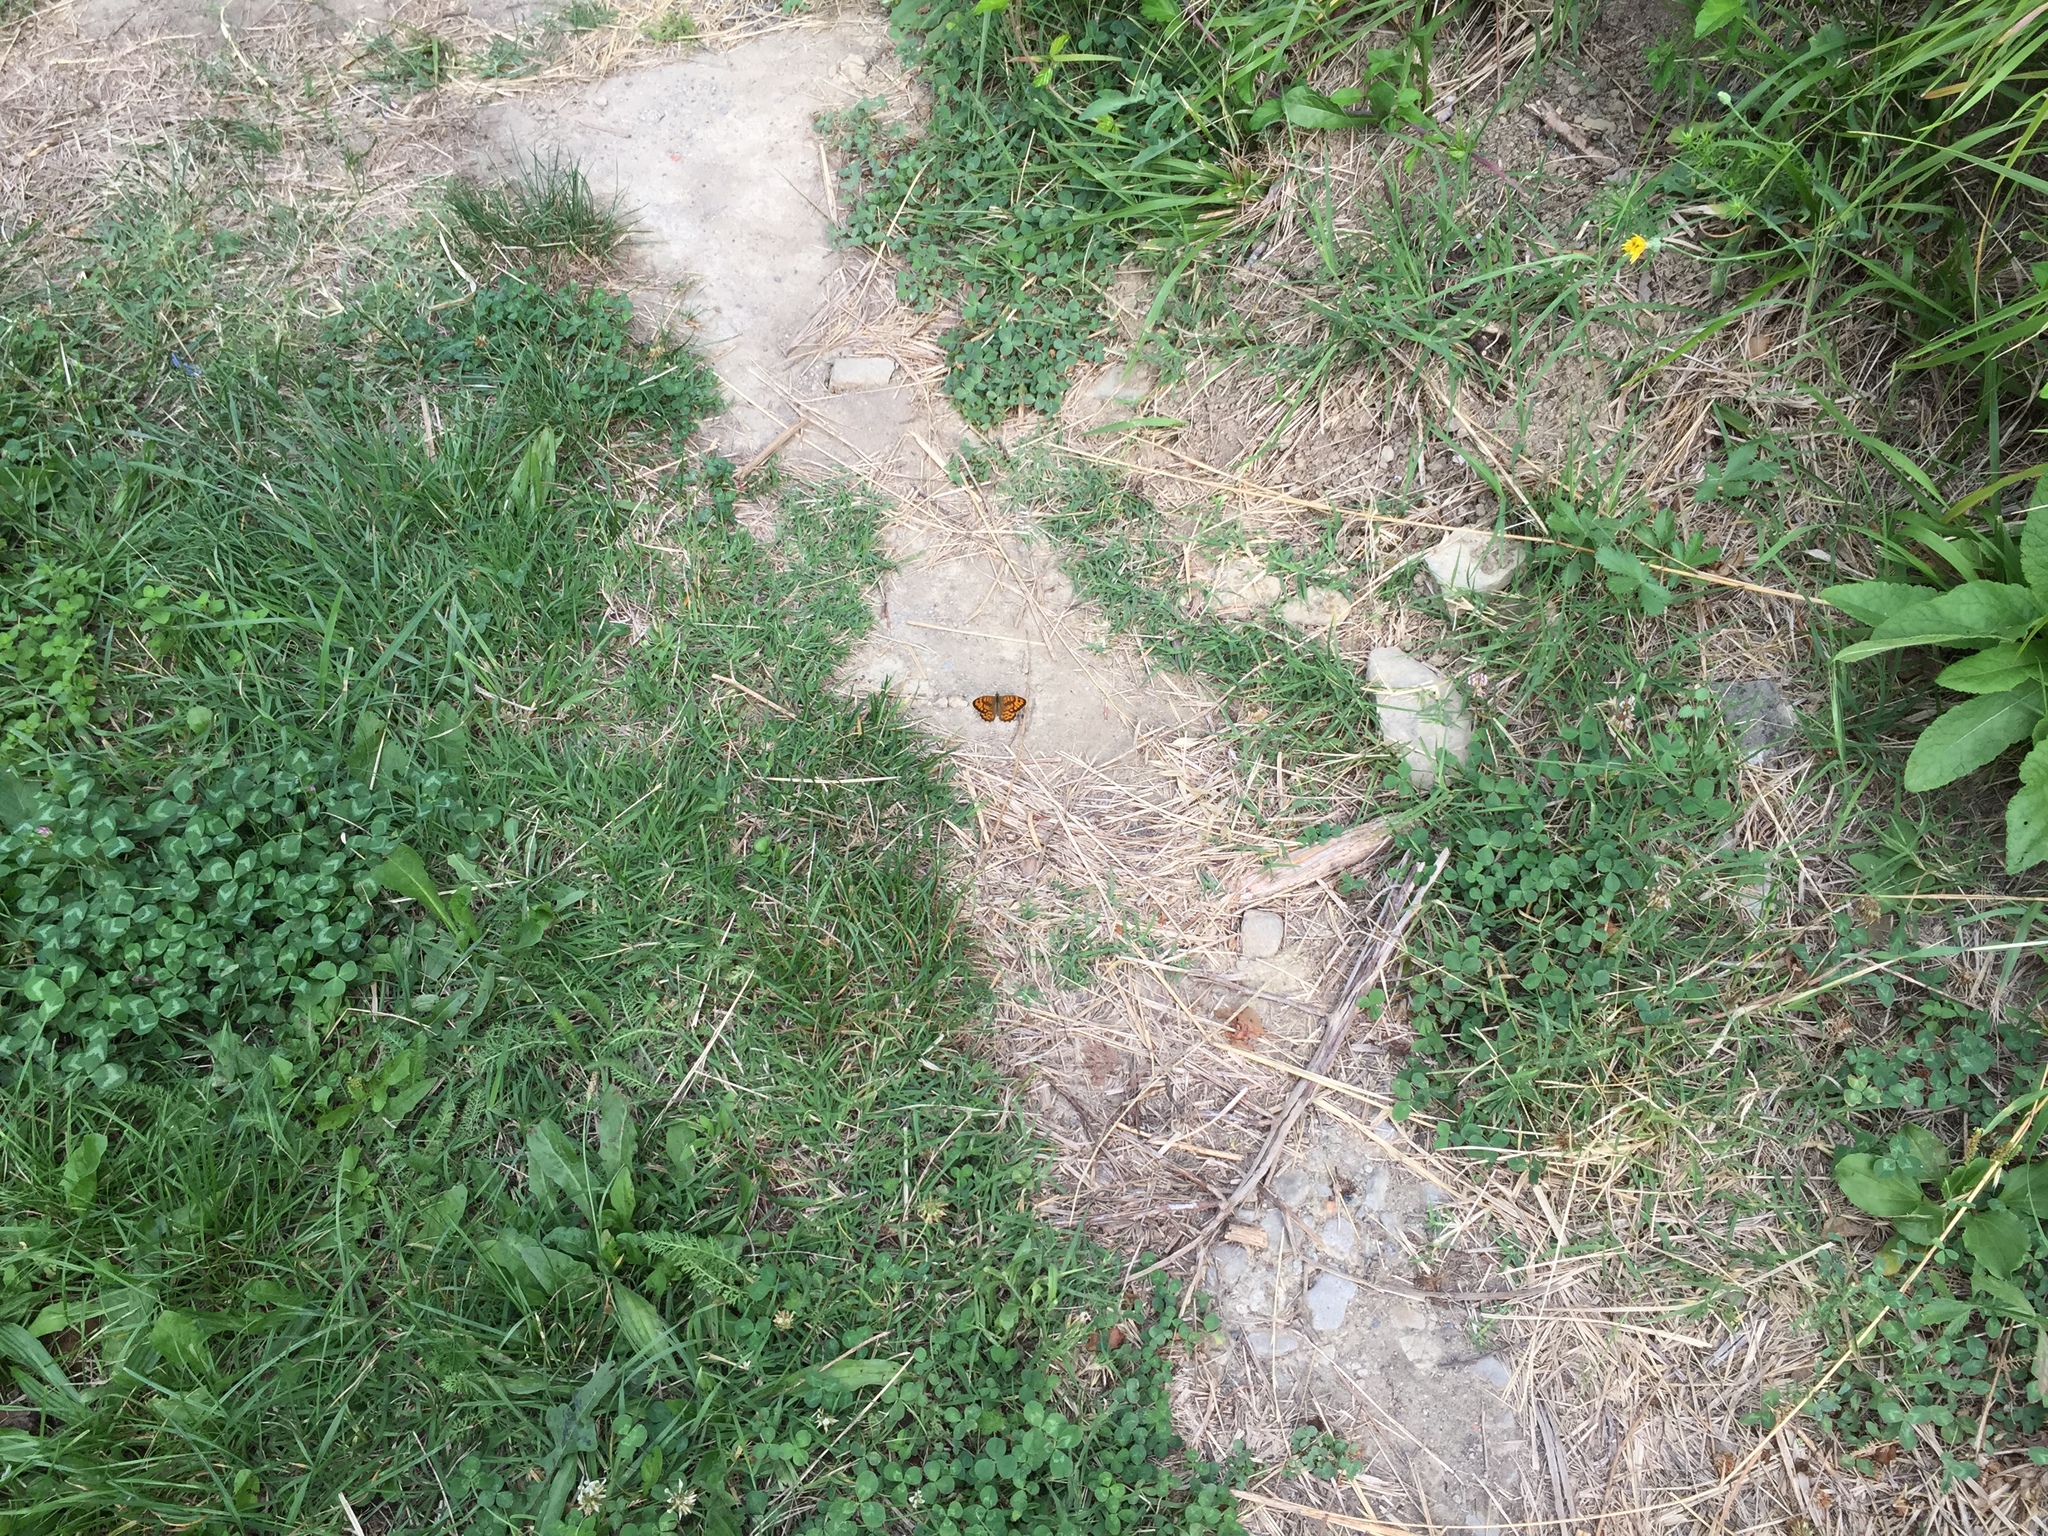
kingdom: Animalia
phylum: Arthropoda
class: Insecta
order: Lepidoptera
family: Nymphalidae
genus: Pararge
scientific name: Pararge Lasiommata megera
